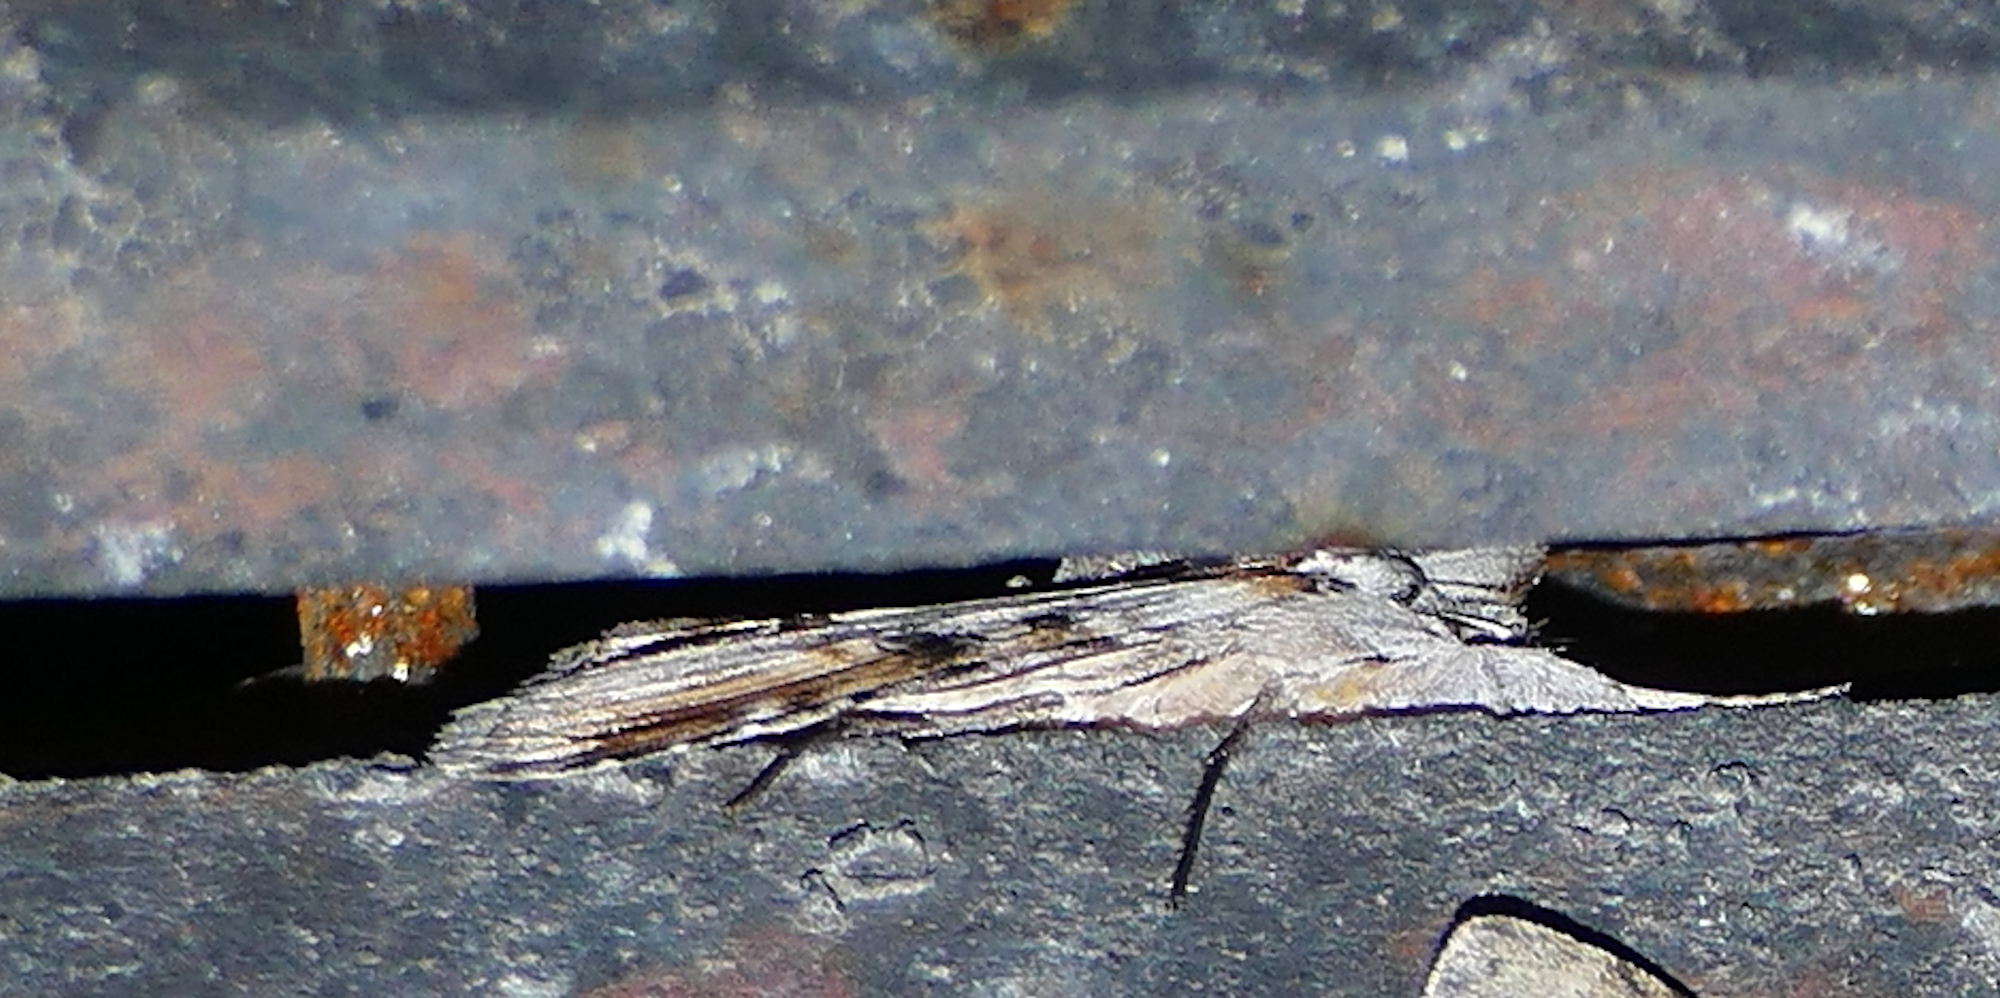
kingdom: Animalia
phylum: Arthropoda
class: Insecta
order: Lepidoptera
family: Noctuidae
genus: Supralathosea
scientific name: Supralathosea obtusa
